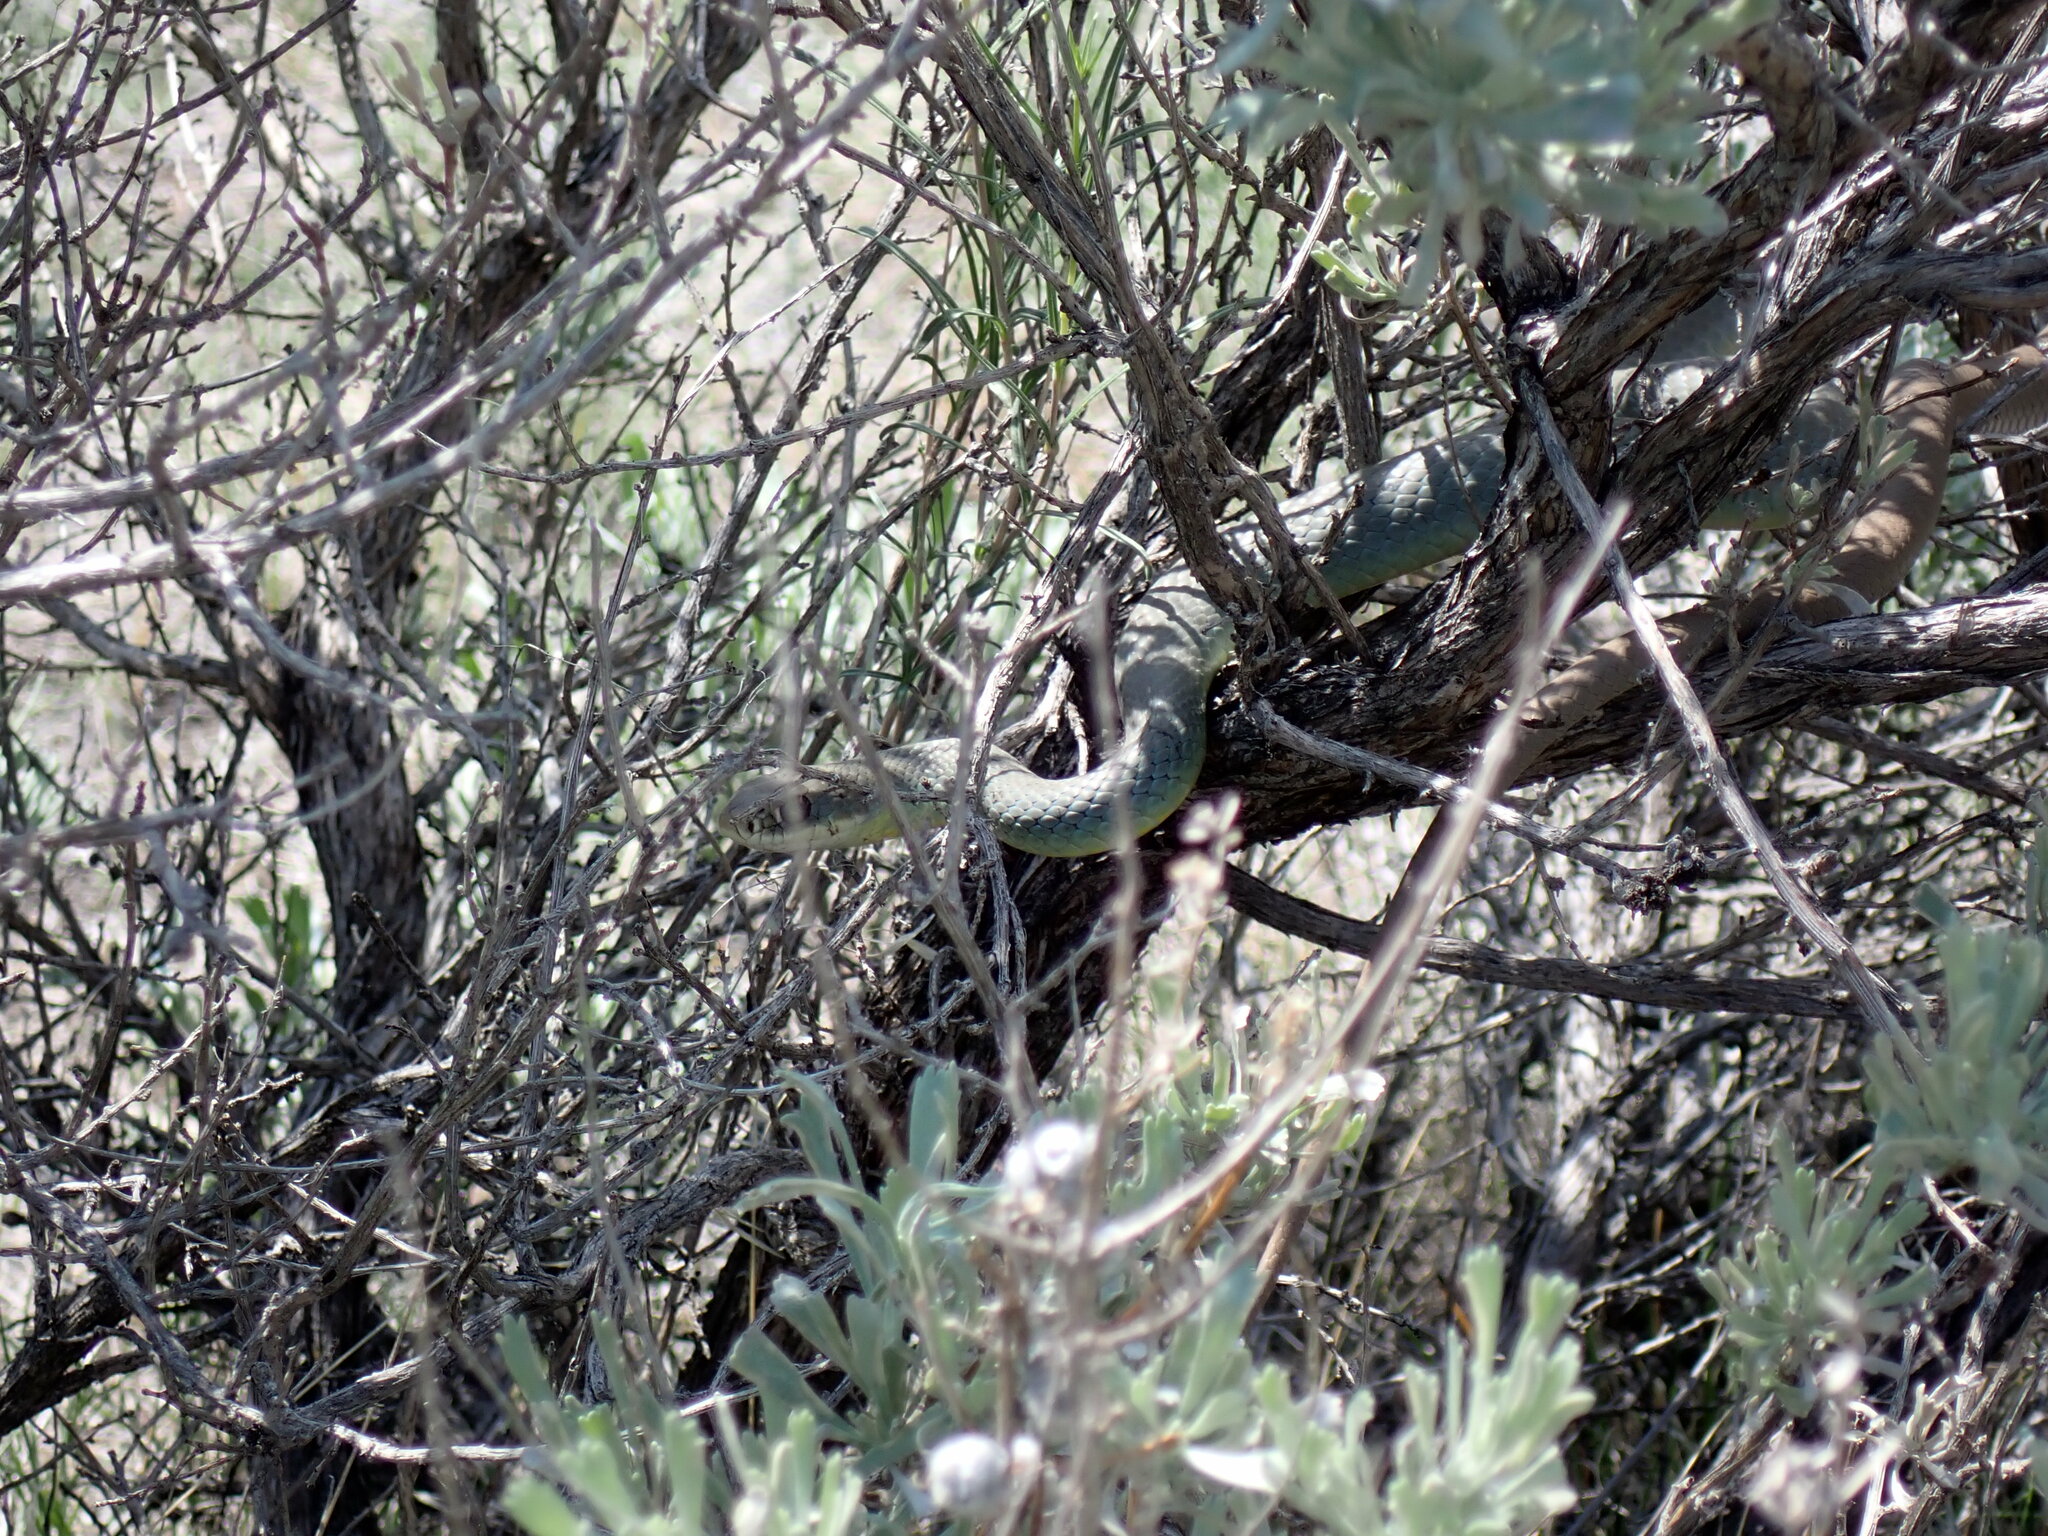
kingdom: Animalia
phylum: Chordata
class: Squamata
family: Colubridae
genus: Coluber
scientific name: Coluber constrictor
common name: Eastern racer
